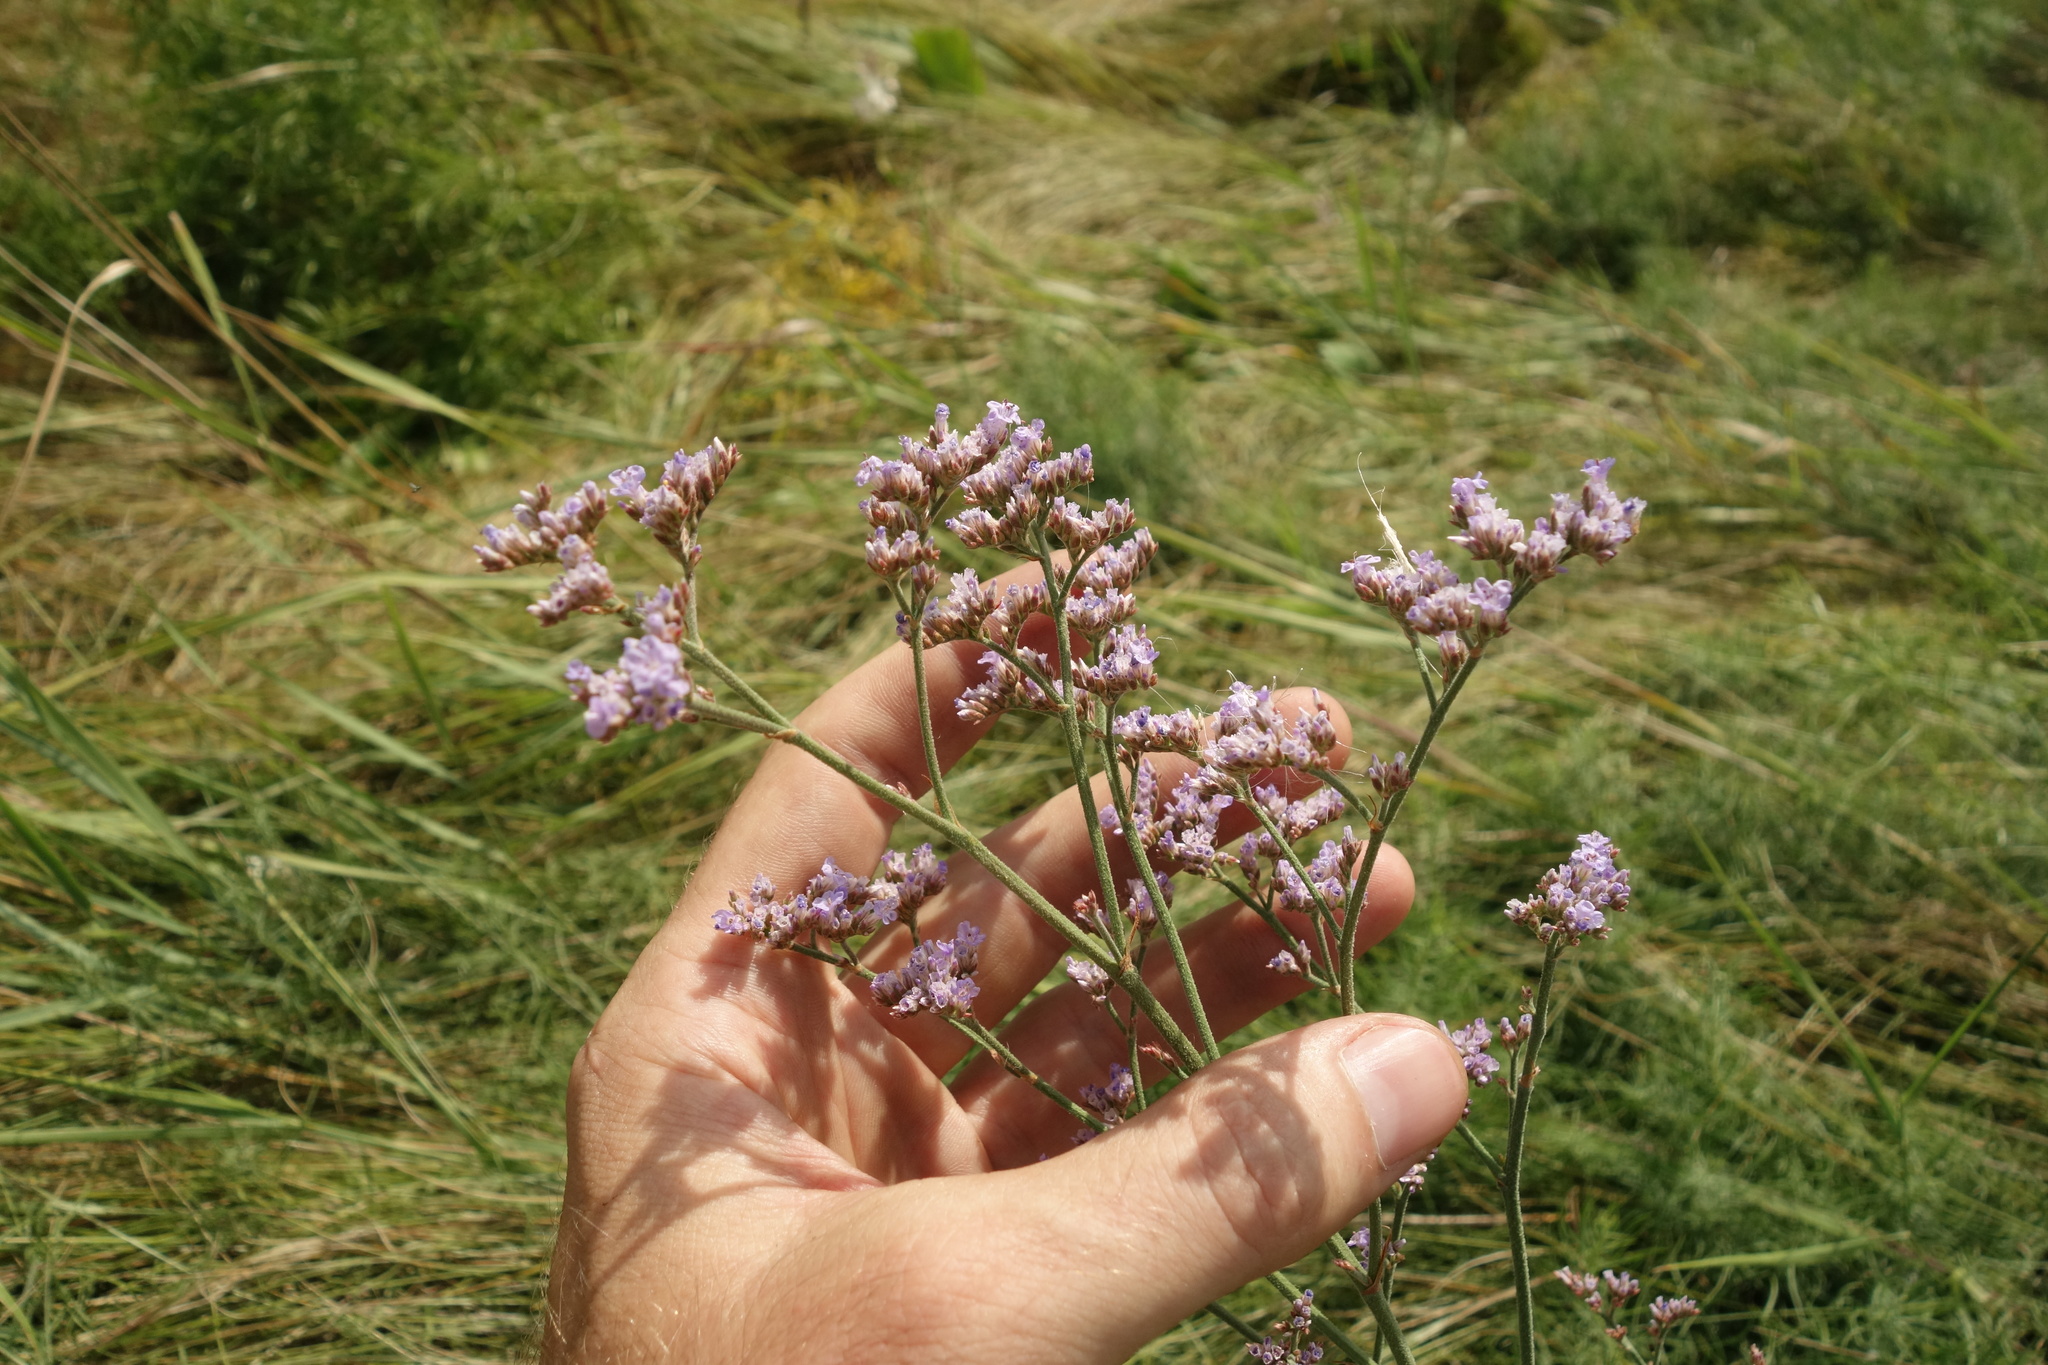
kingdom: Plantae
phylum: Tracheophyta
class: Magnoliopsida
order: Caryophyllales
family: Plumbaginaceae
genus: Limonium
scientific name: Limonium tomentellum
